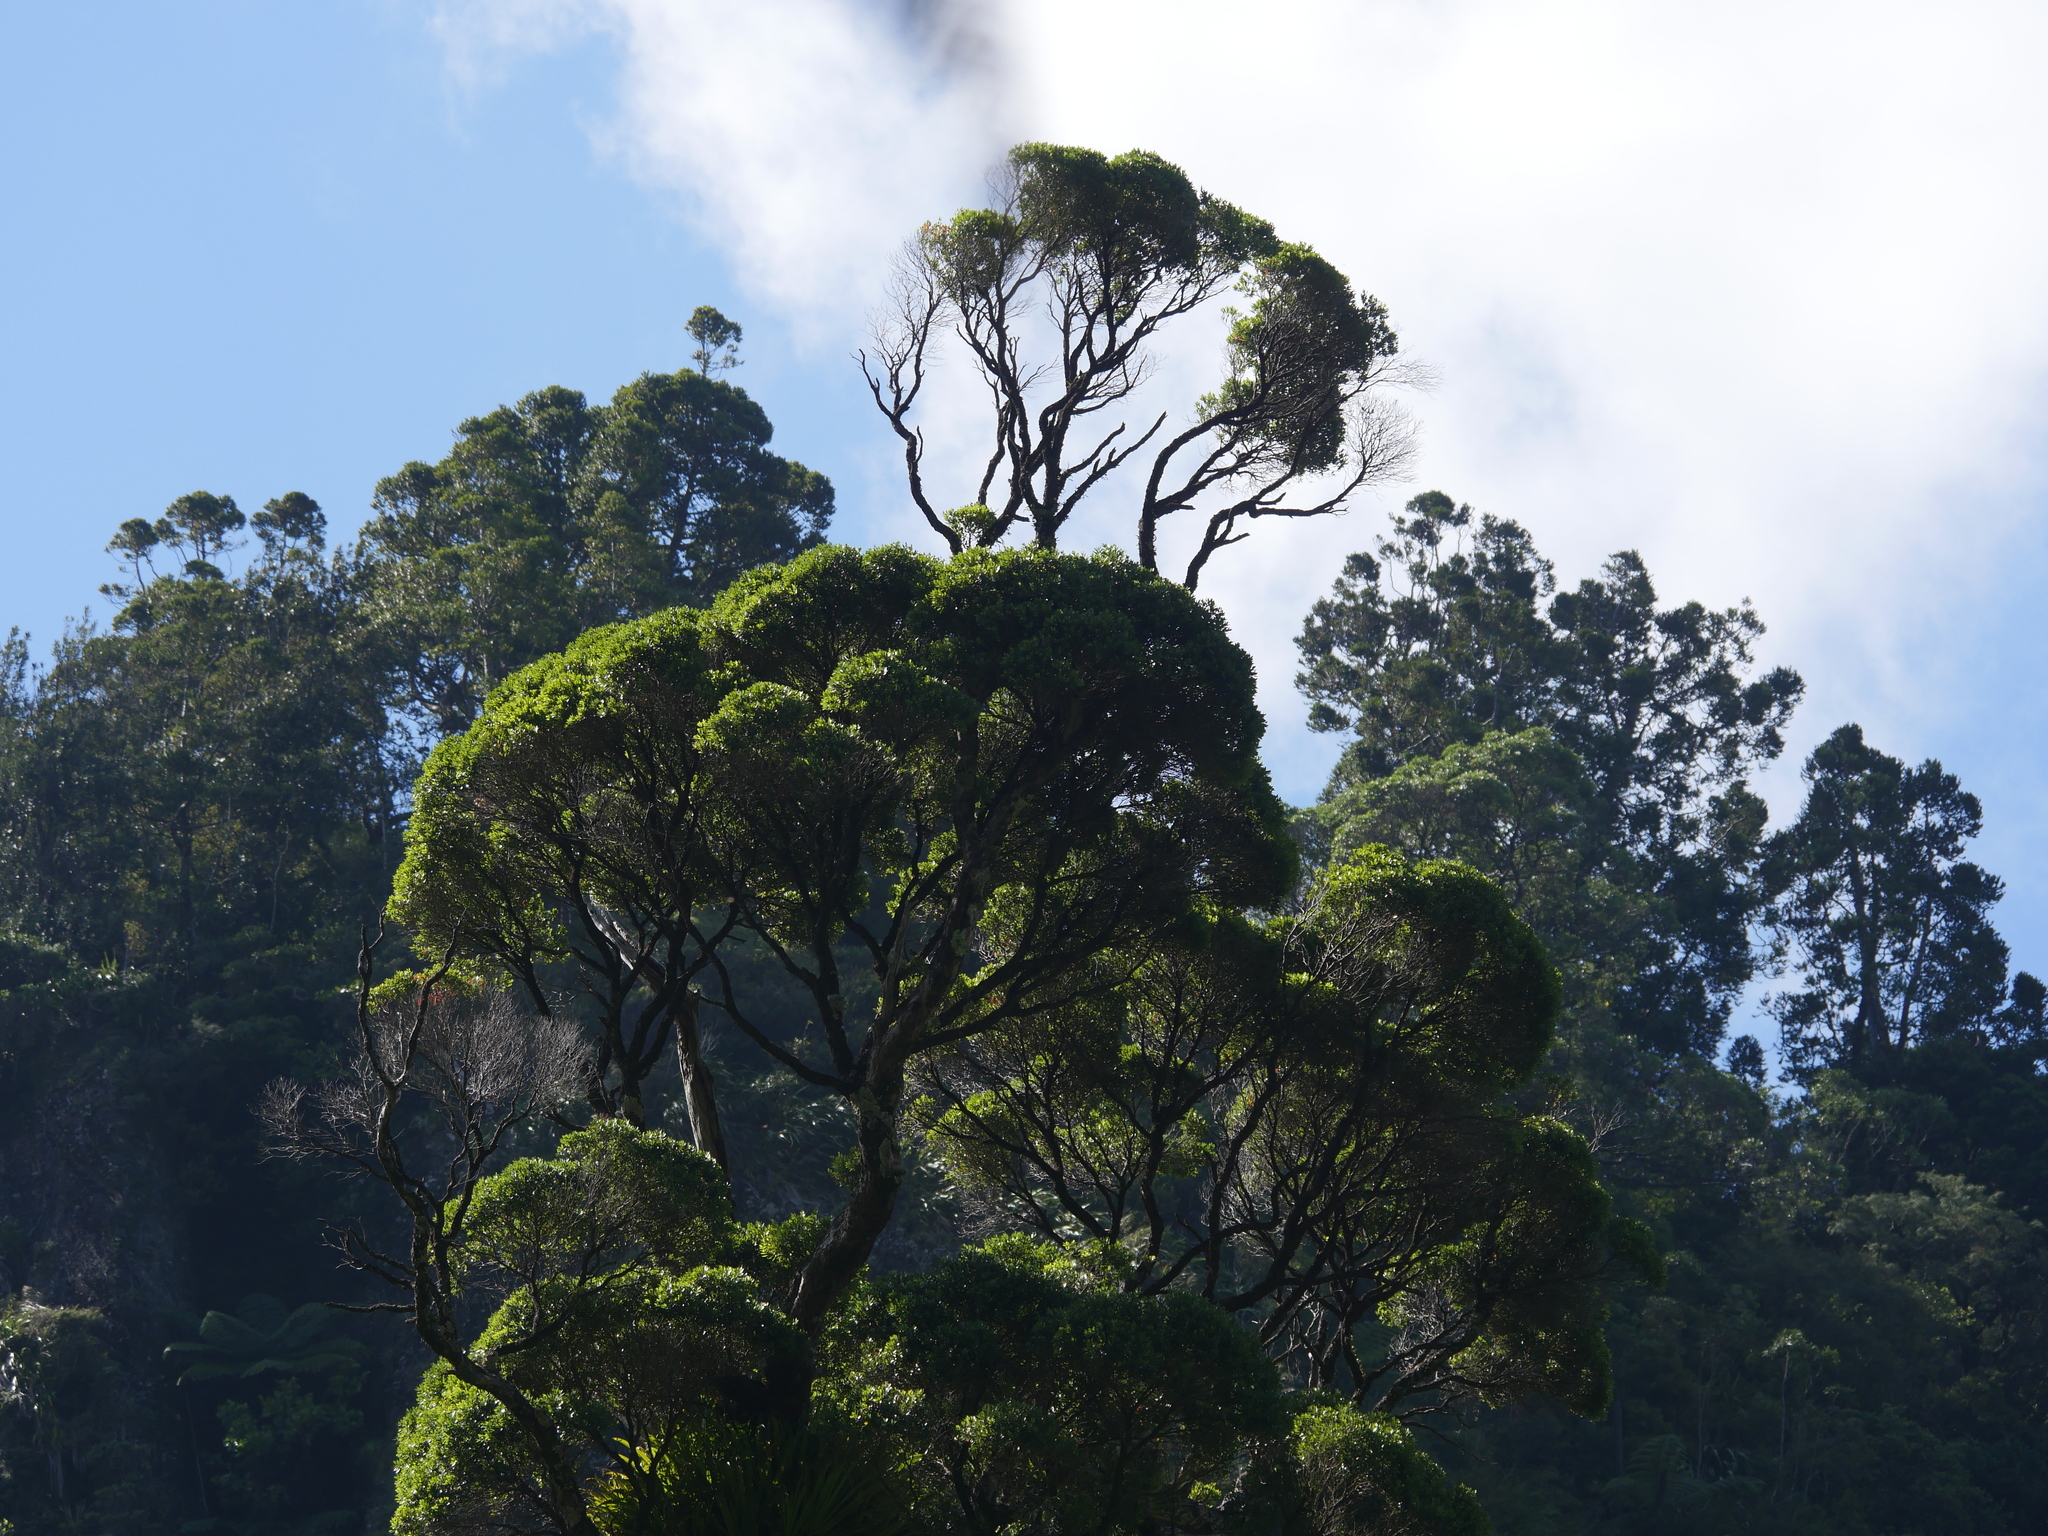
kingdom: Plantae
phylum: Tracheophyta
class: Magnoliopsida
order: Myrtales
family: Myrtaceae
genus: Metrosideros
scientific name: Metrosideros robusta
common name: Northern rata
